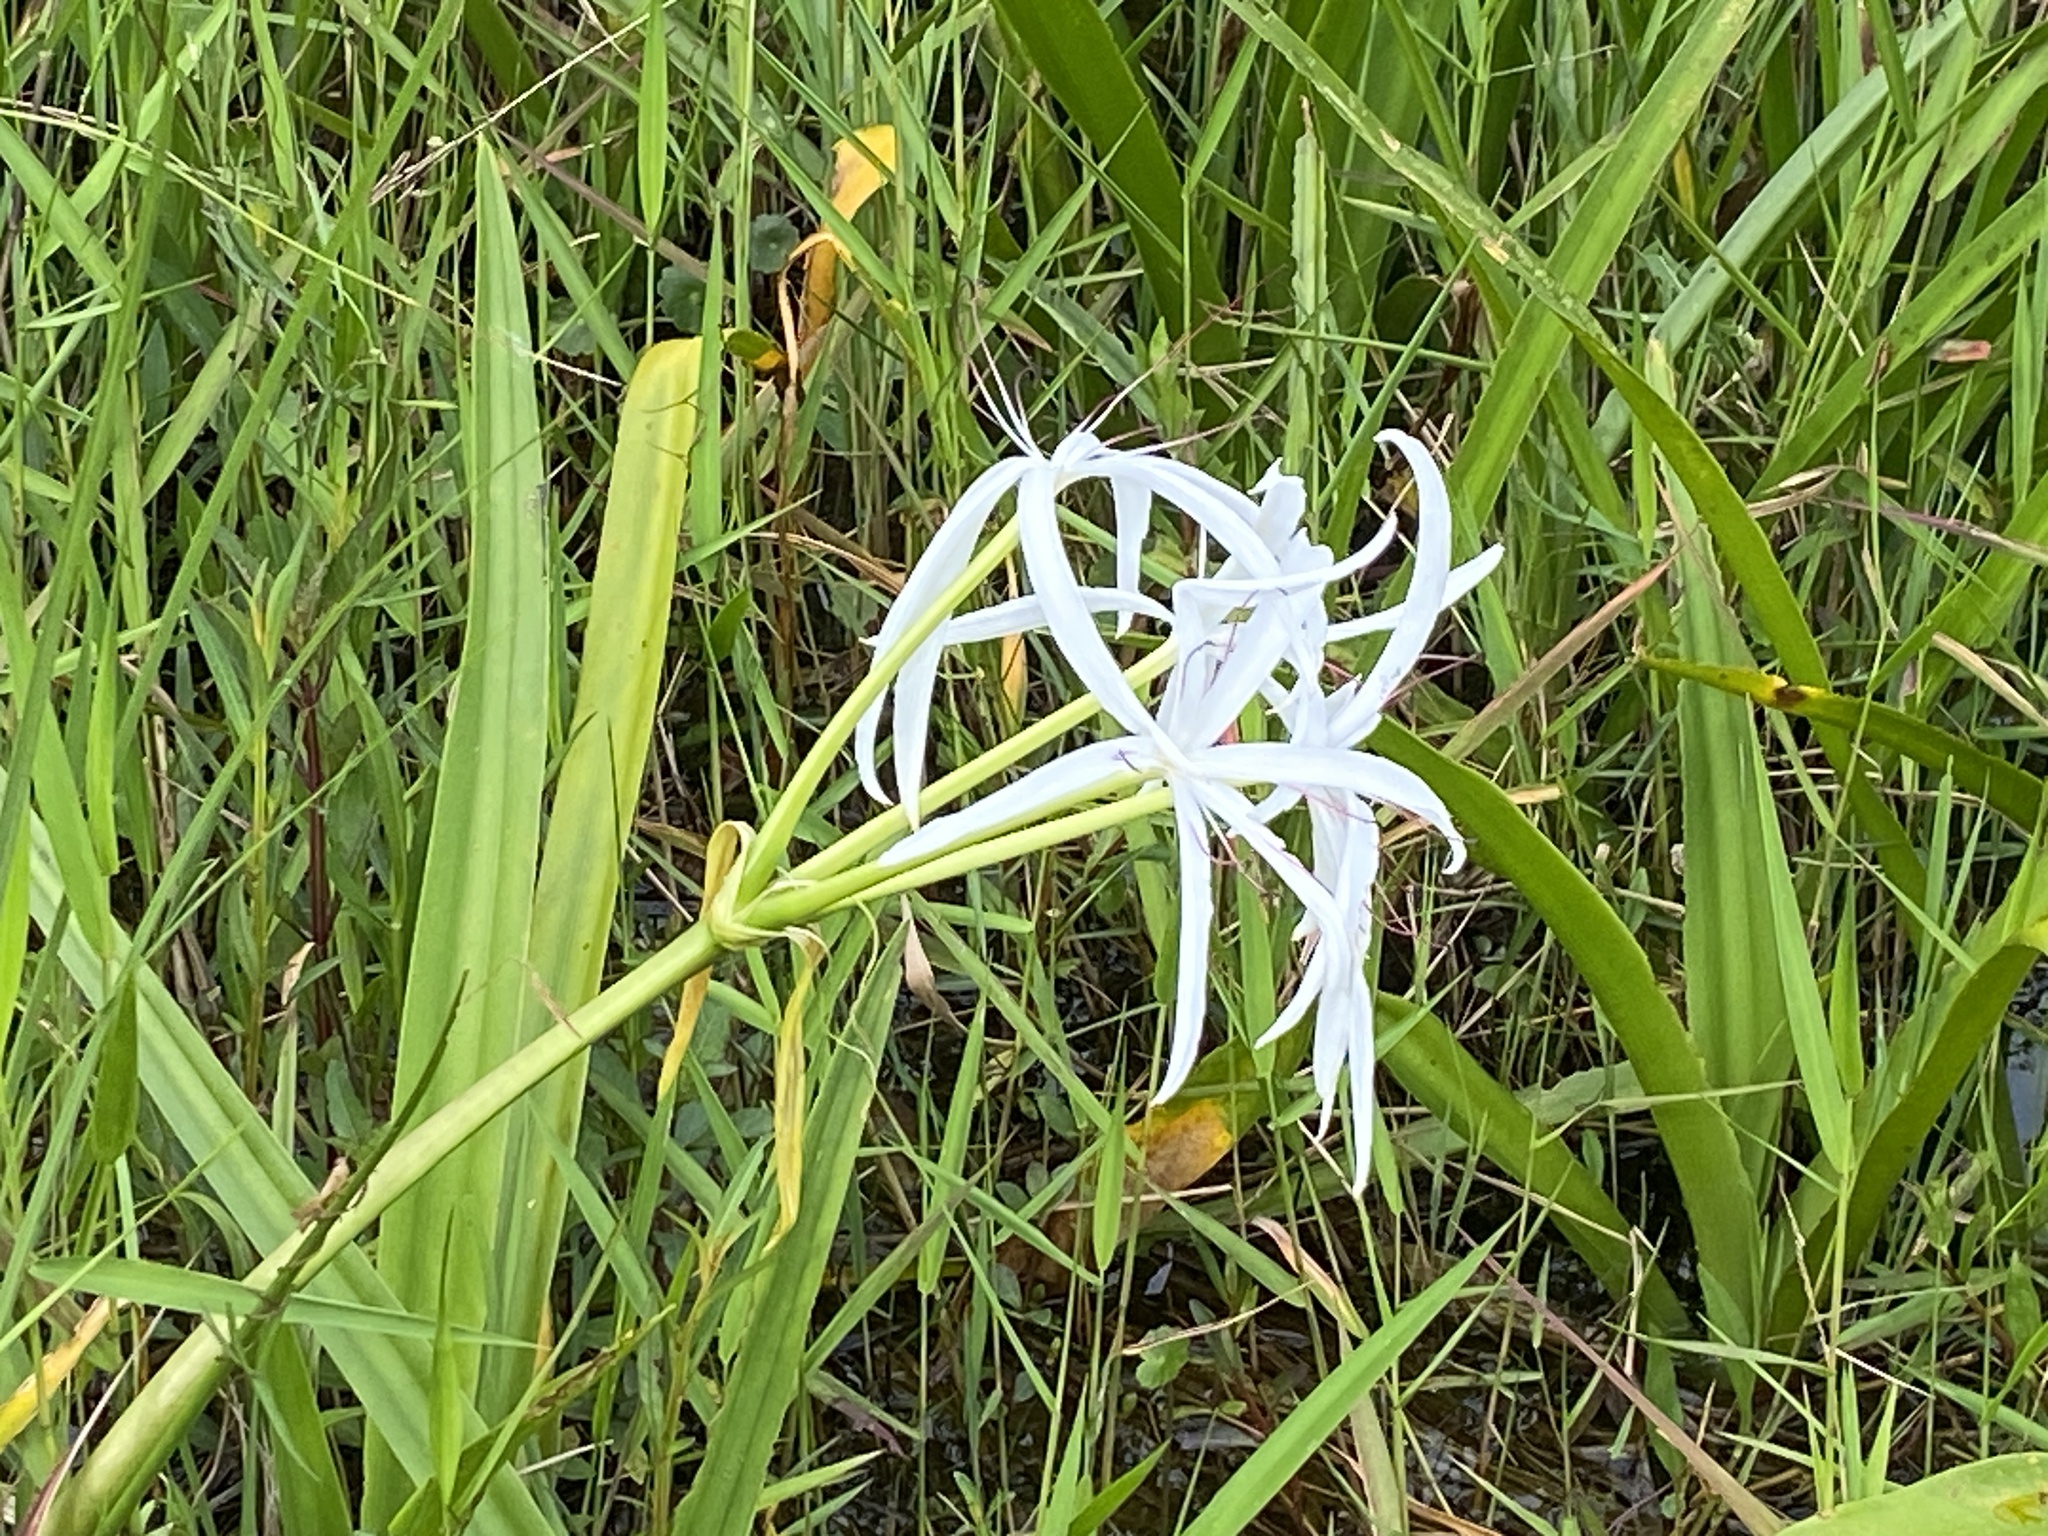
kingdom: Plantae
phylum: Tracheophyta
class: Liliopsida
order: Asparagales
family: Amaryllidaceae
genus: Crinum
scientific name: Crinum americanum
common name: Florida swamp-lily
